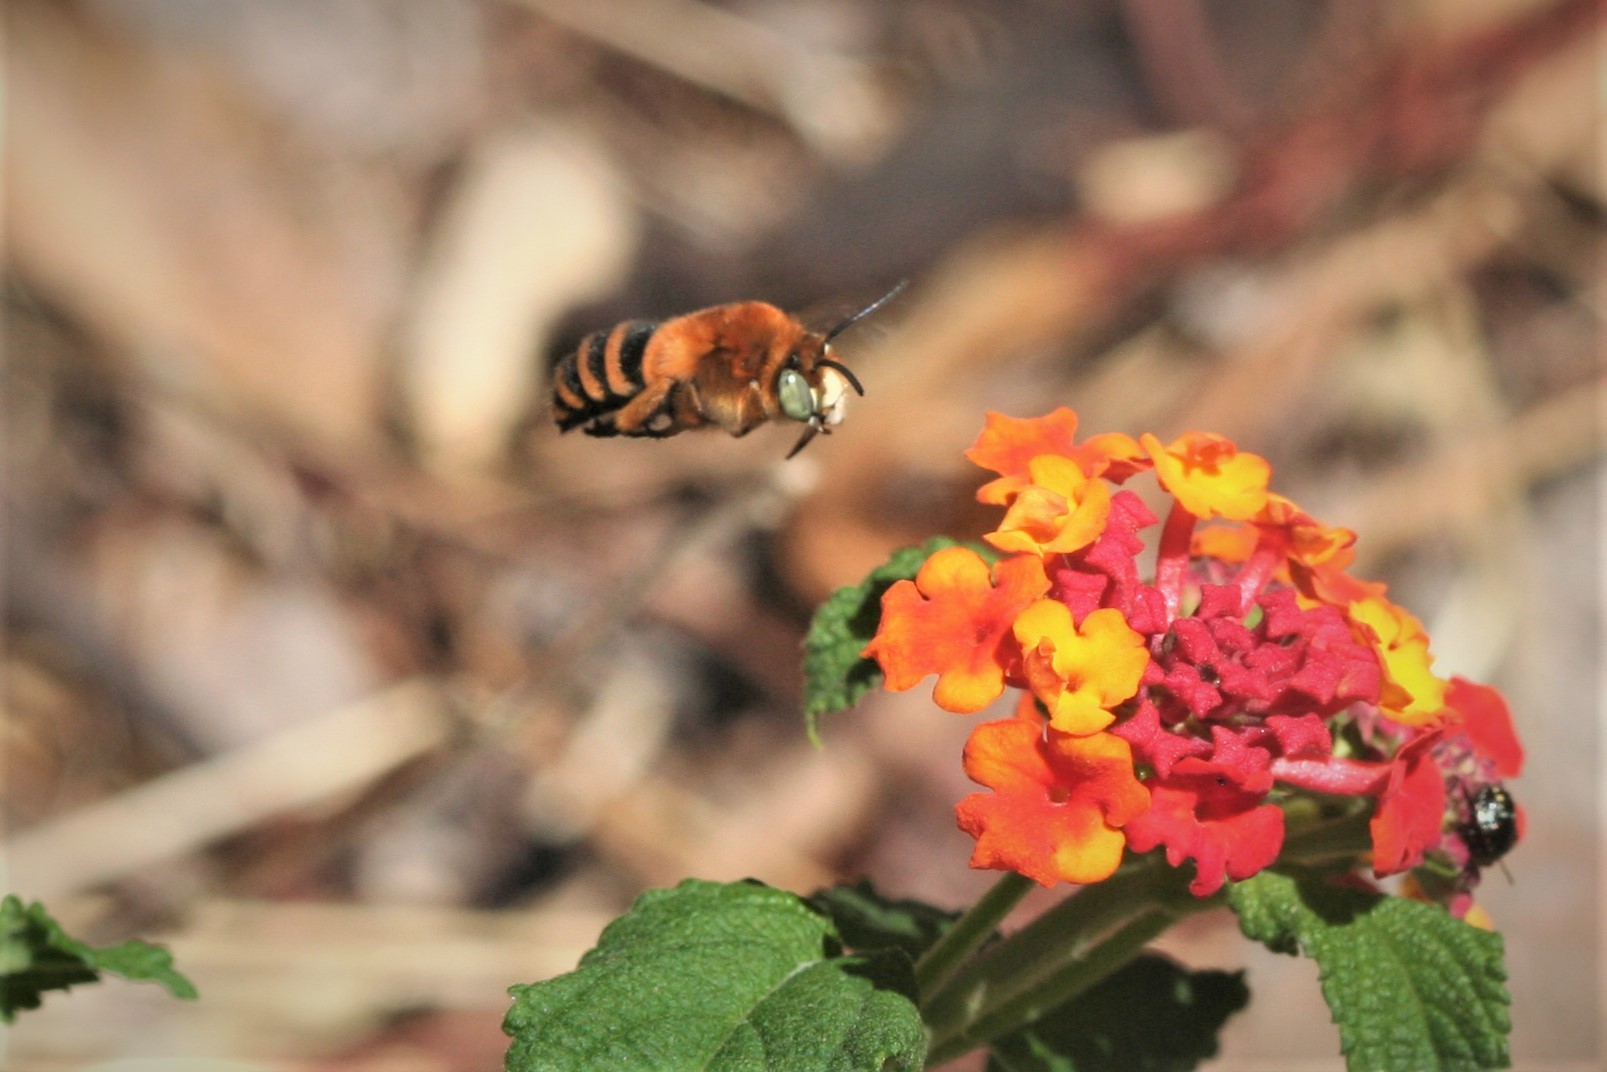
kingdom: Animalia
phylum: Arthropoda
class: Insecta
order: Hymenoptera
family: Apidae
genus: Amegilla
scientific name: Amegilla quadrifasciata
